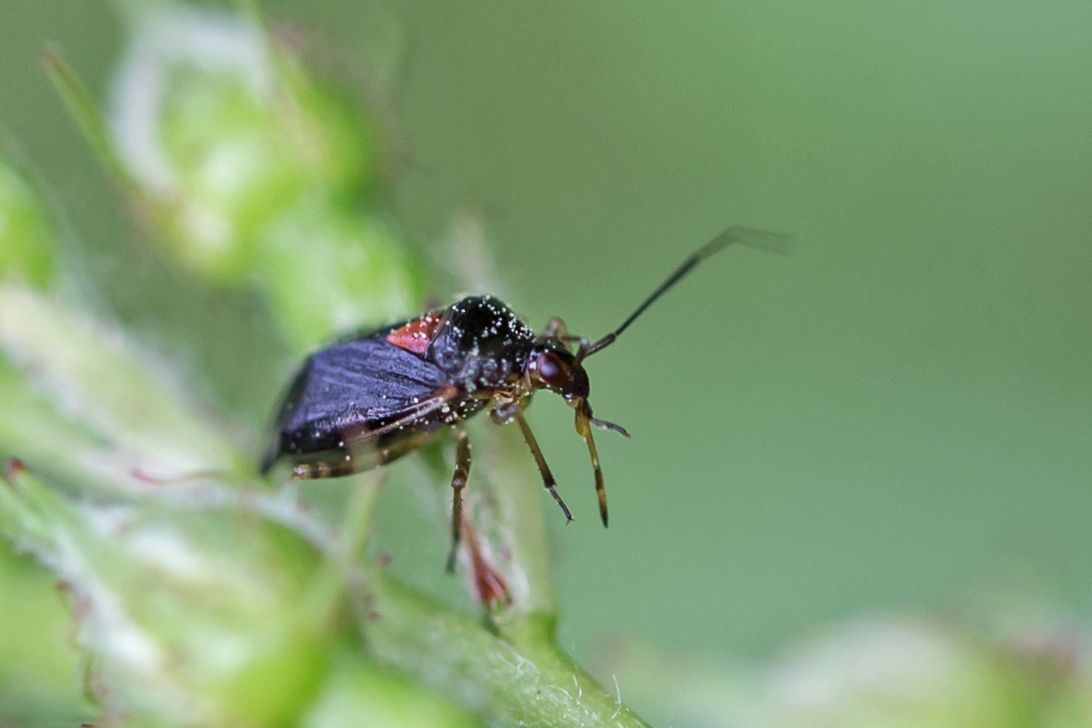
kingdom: Animalia
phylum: Arthropoda
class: Insecta
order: Hemiptera
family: Miridae
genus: Metriorrhynchomiris
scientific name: Metriorrhynchomiris fallax
